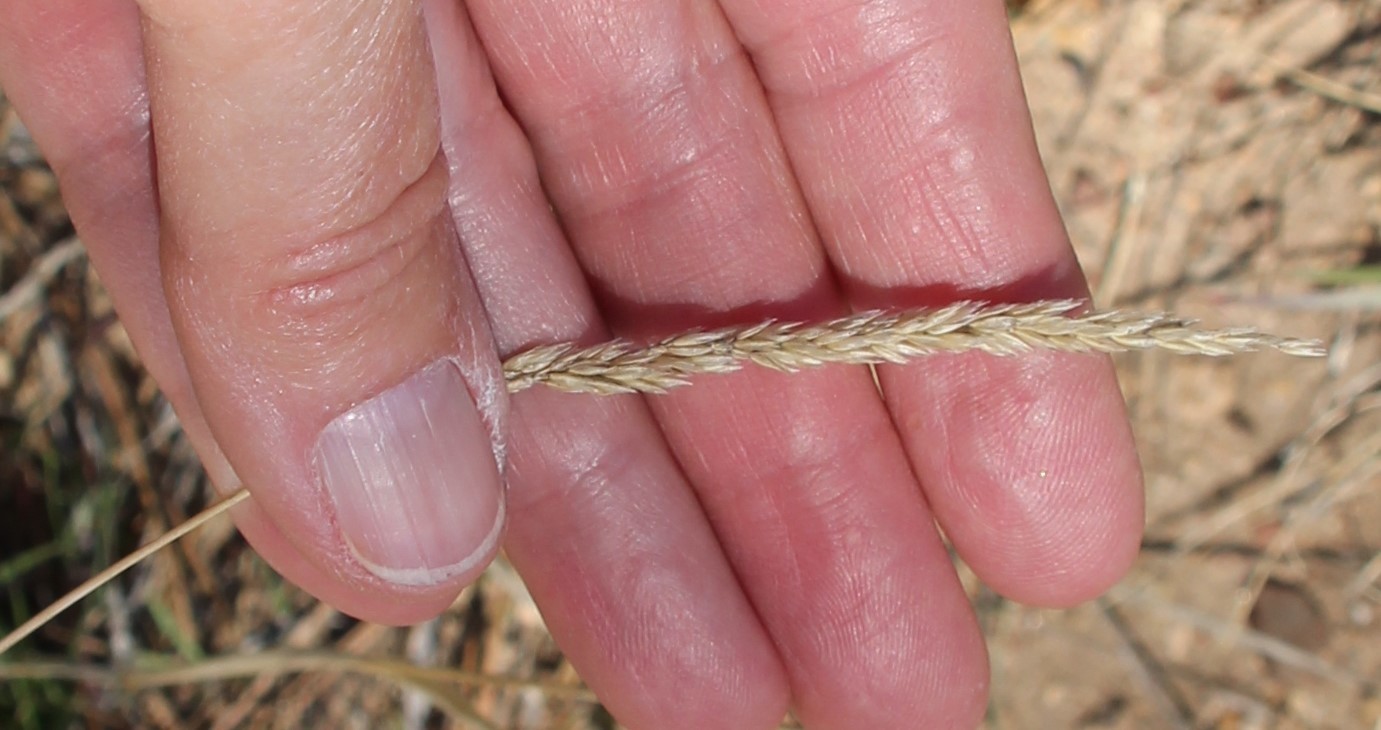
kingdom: Plantae
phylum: Tracheophyta
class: Liliopsida
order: Poales
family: Poaceae
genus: Koeleria
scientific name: Koeleria macrantha
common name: Crested hair-grass
